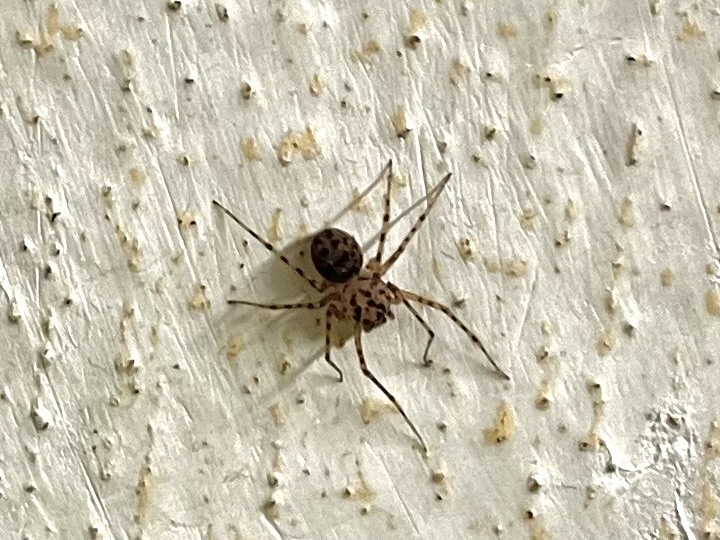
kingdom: Animalia
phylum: Arthropoda
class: Arachnida
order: Araneae
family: Scytodidae
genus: Scytodes
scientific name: Scytodes thoracica
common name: Spitting spider
